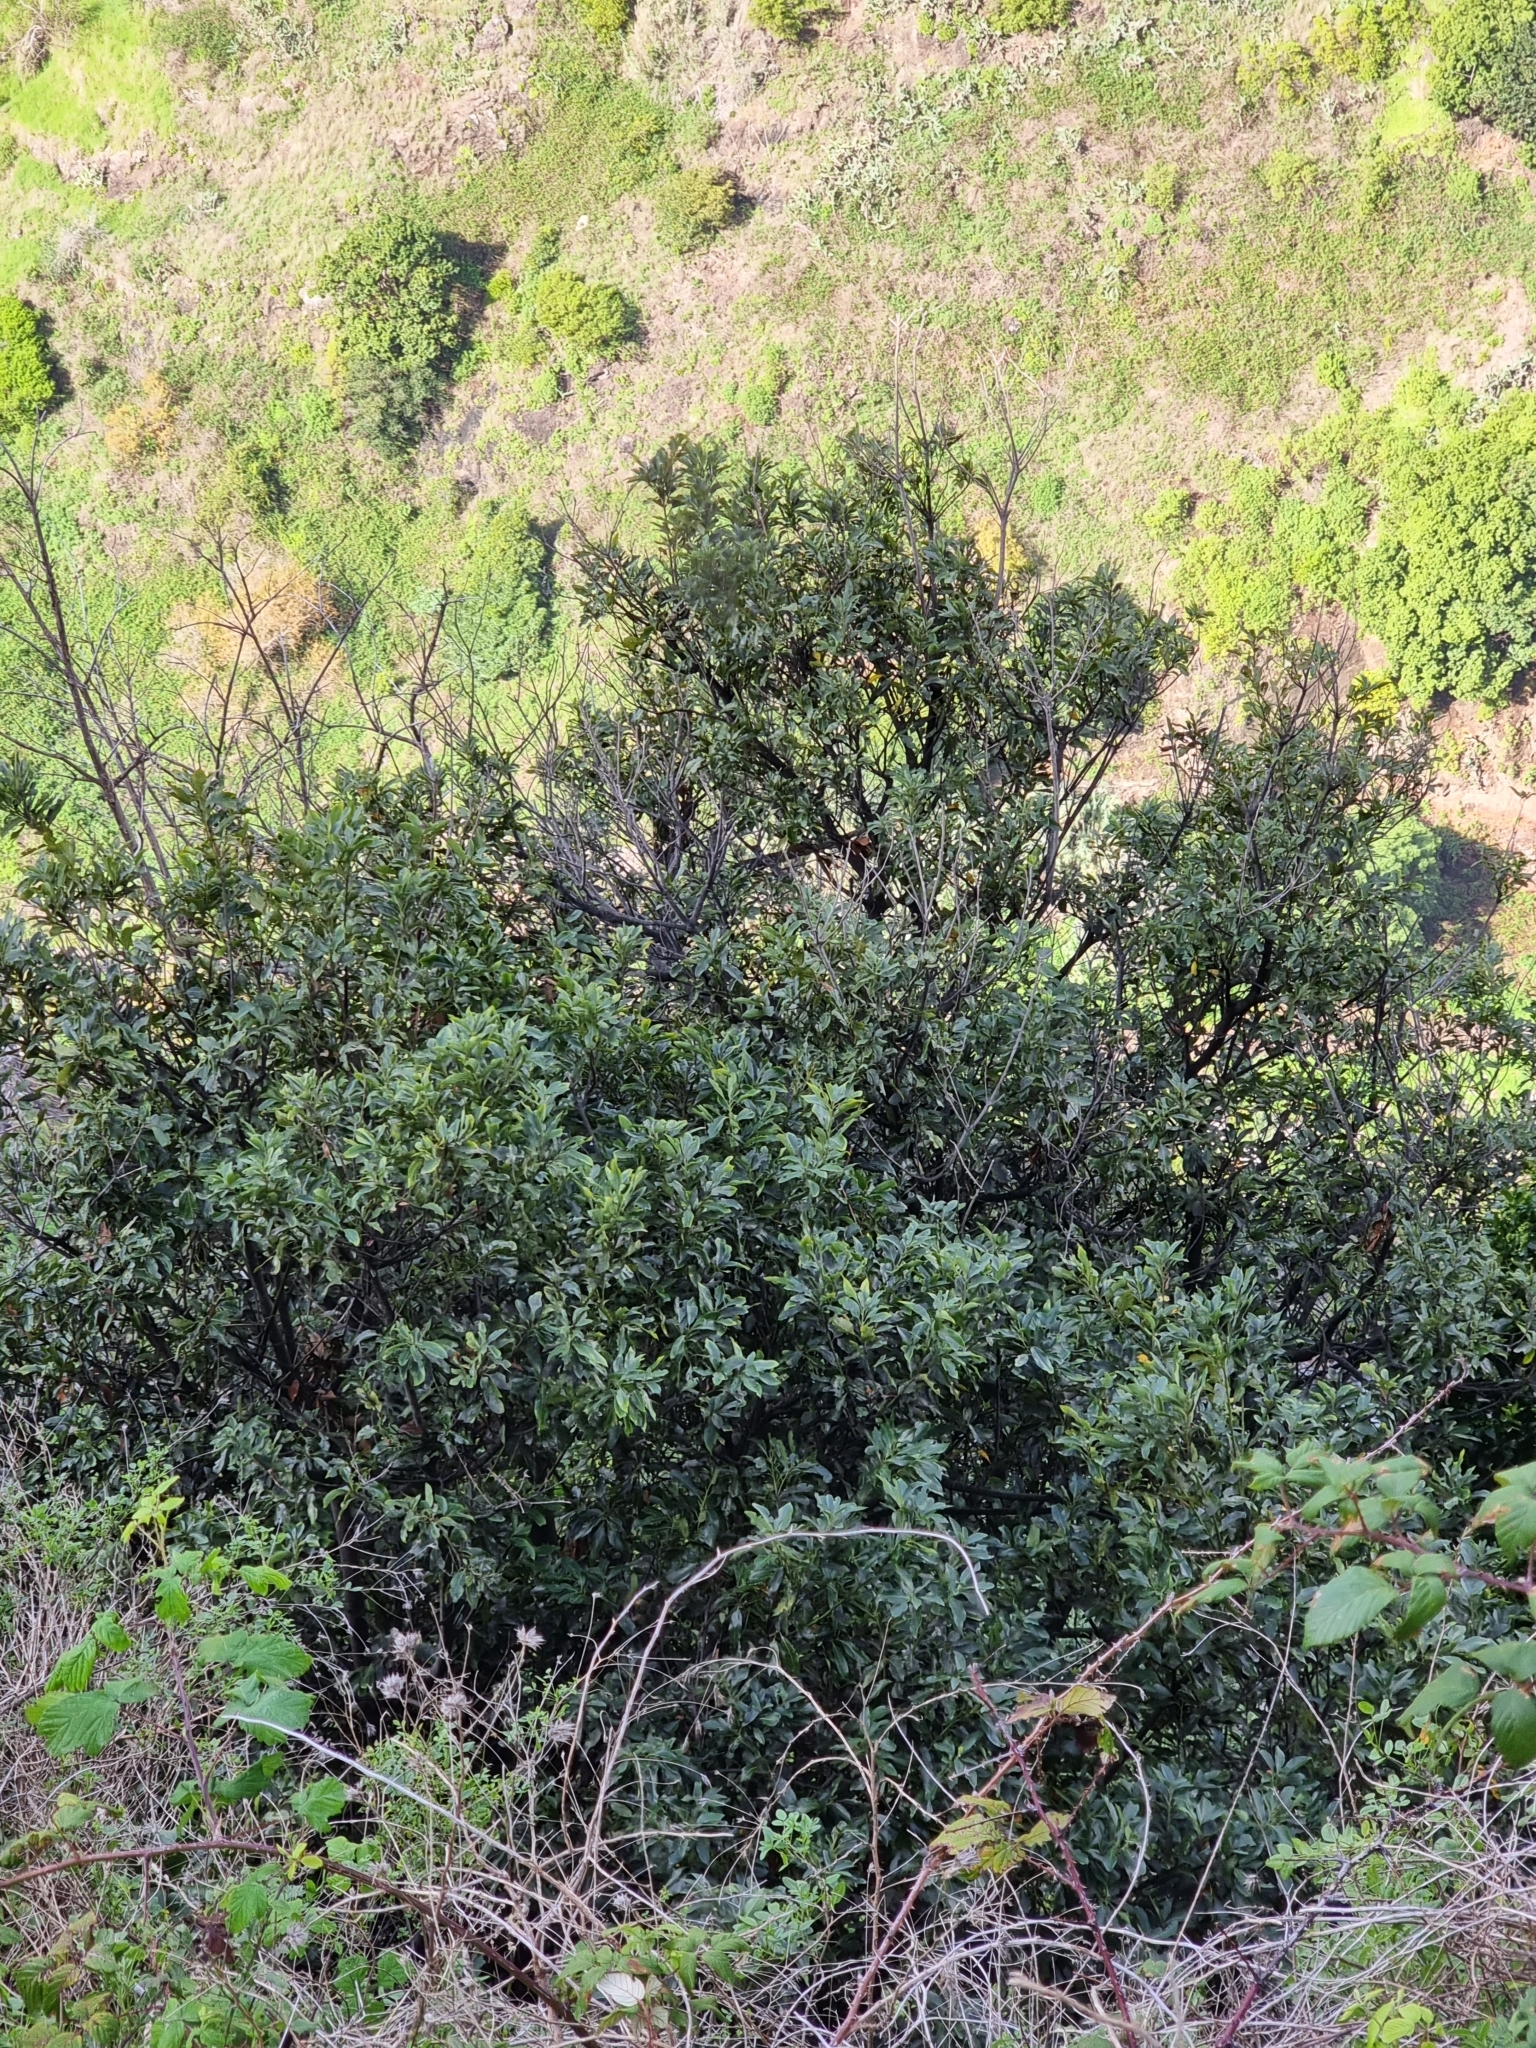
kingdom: Plantae
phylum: Tracheophyta
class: Magnoliopsida
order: Laurales
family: Lauraceae
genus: Laurus
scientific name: Laurus novocanariensis
